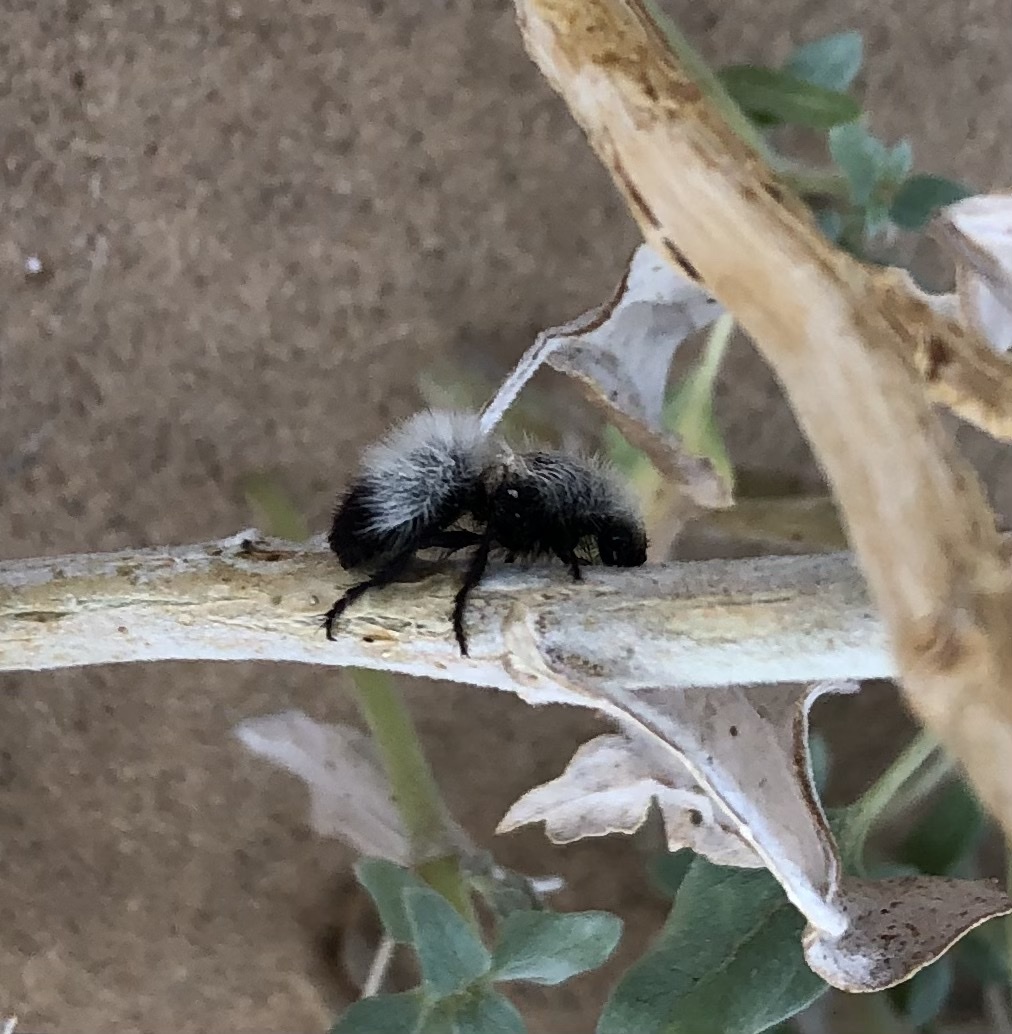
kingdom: Animalia
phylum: Arthropoda
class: Insecta
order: Hymenoptera
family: Mutillidae
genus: Dasymutilla
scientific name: Dasymutilla nocturna
